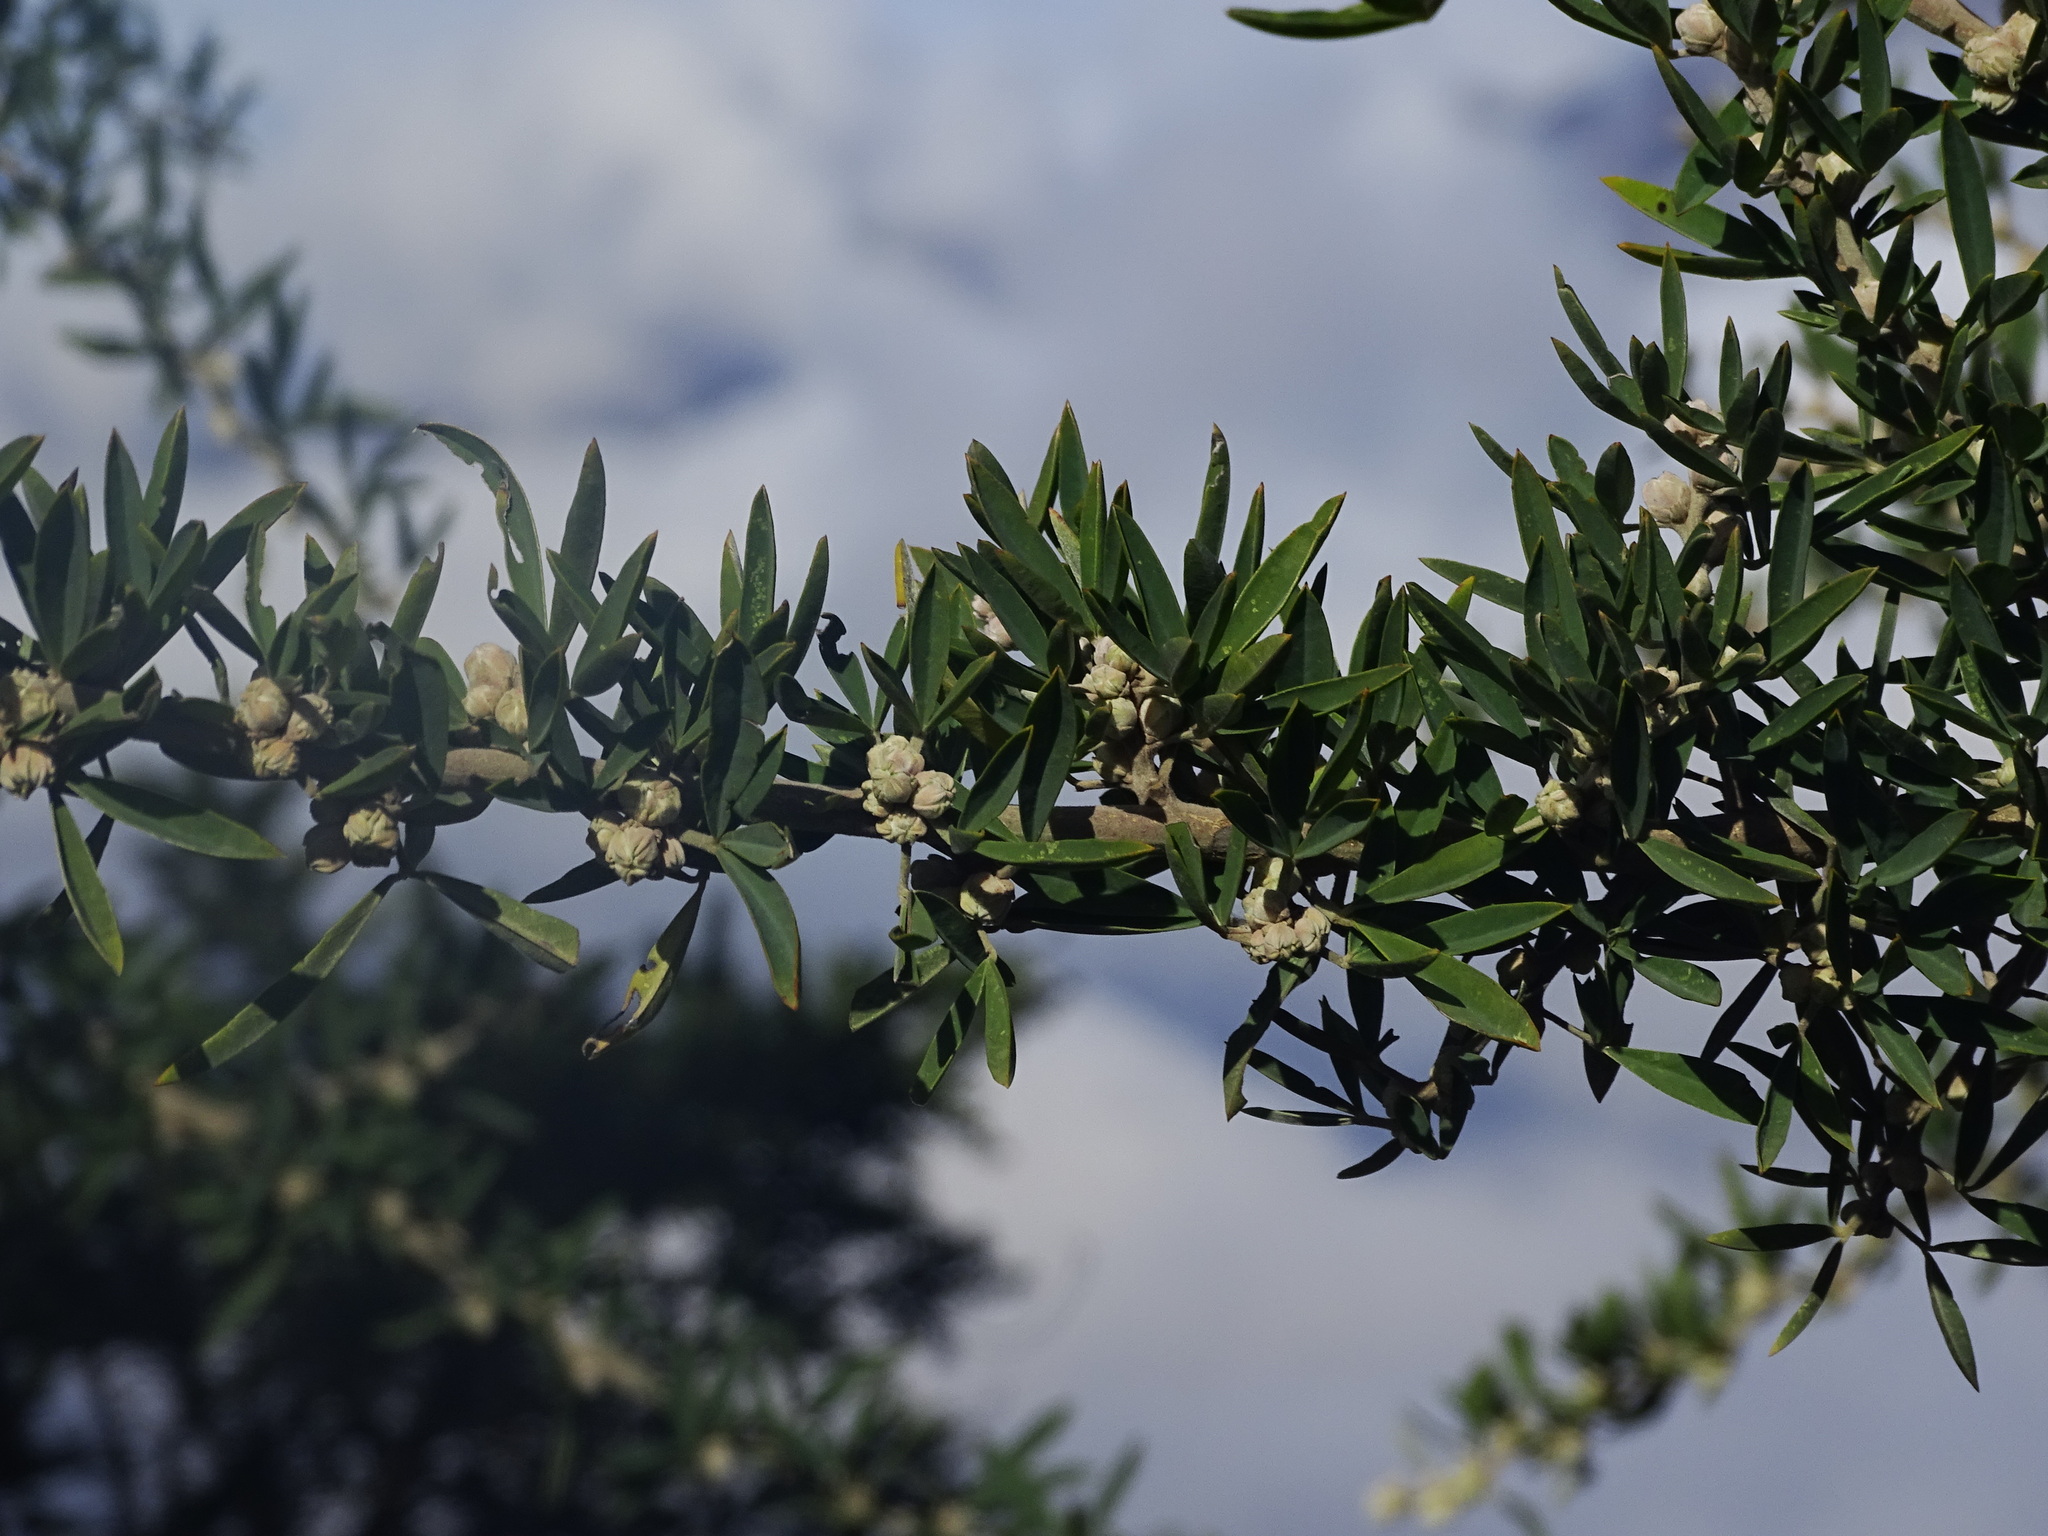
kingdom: Plantae
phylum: Tracheophyta
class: Magnoliopsida
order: Fabales
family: Fabaceae
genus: Chamaecytisus
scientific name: Chamaecytisus prolifer
